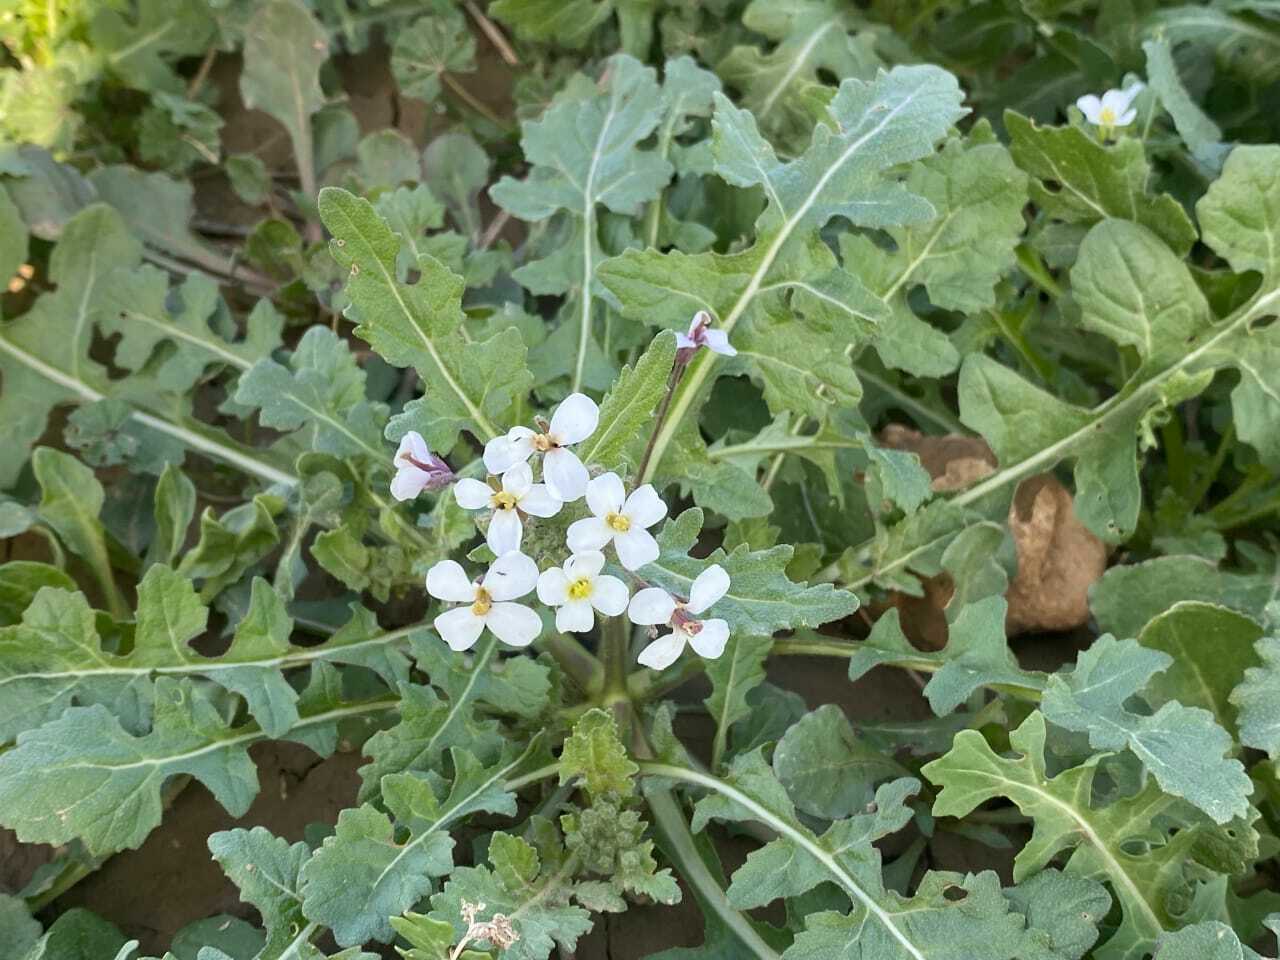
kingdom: Plantae
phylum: Tracheophyta
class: Magnoliopsida
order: Brassicales
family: Brassicaceae
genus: Diplotaxis
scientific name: Diplotaxis erucoides
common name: White rocket
